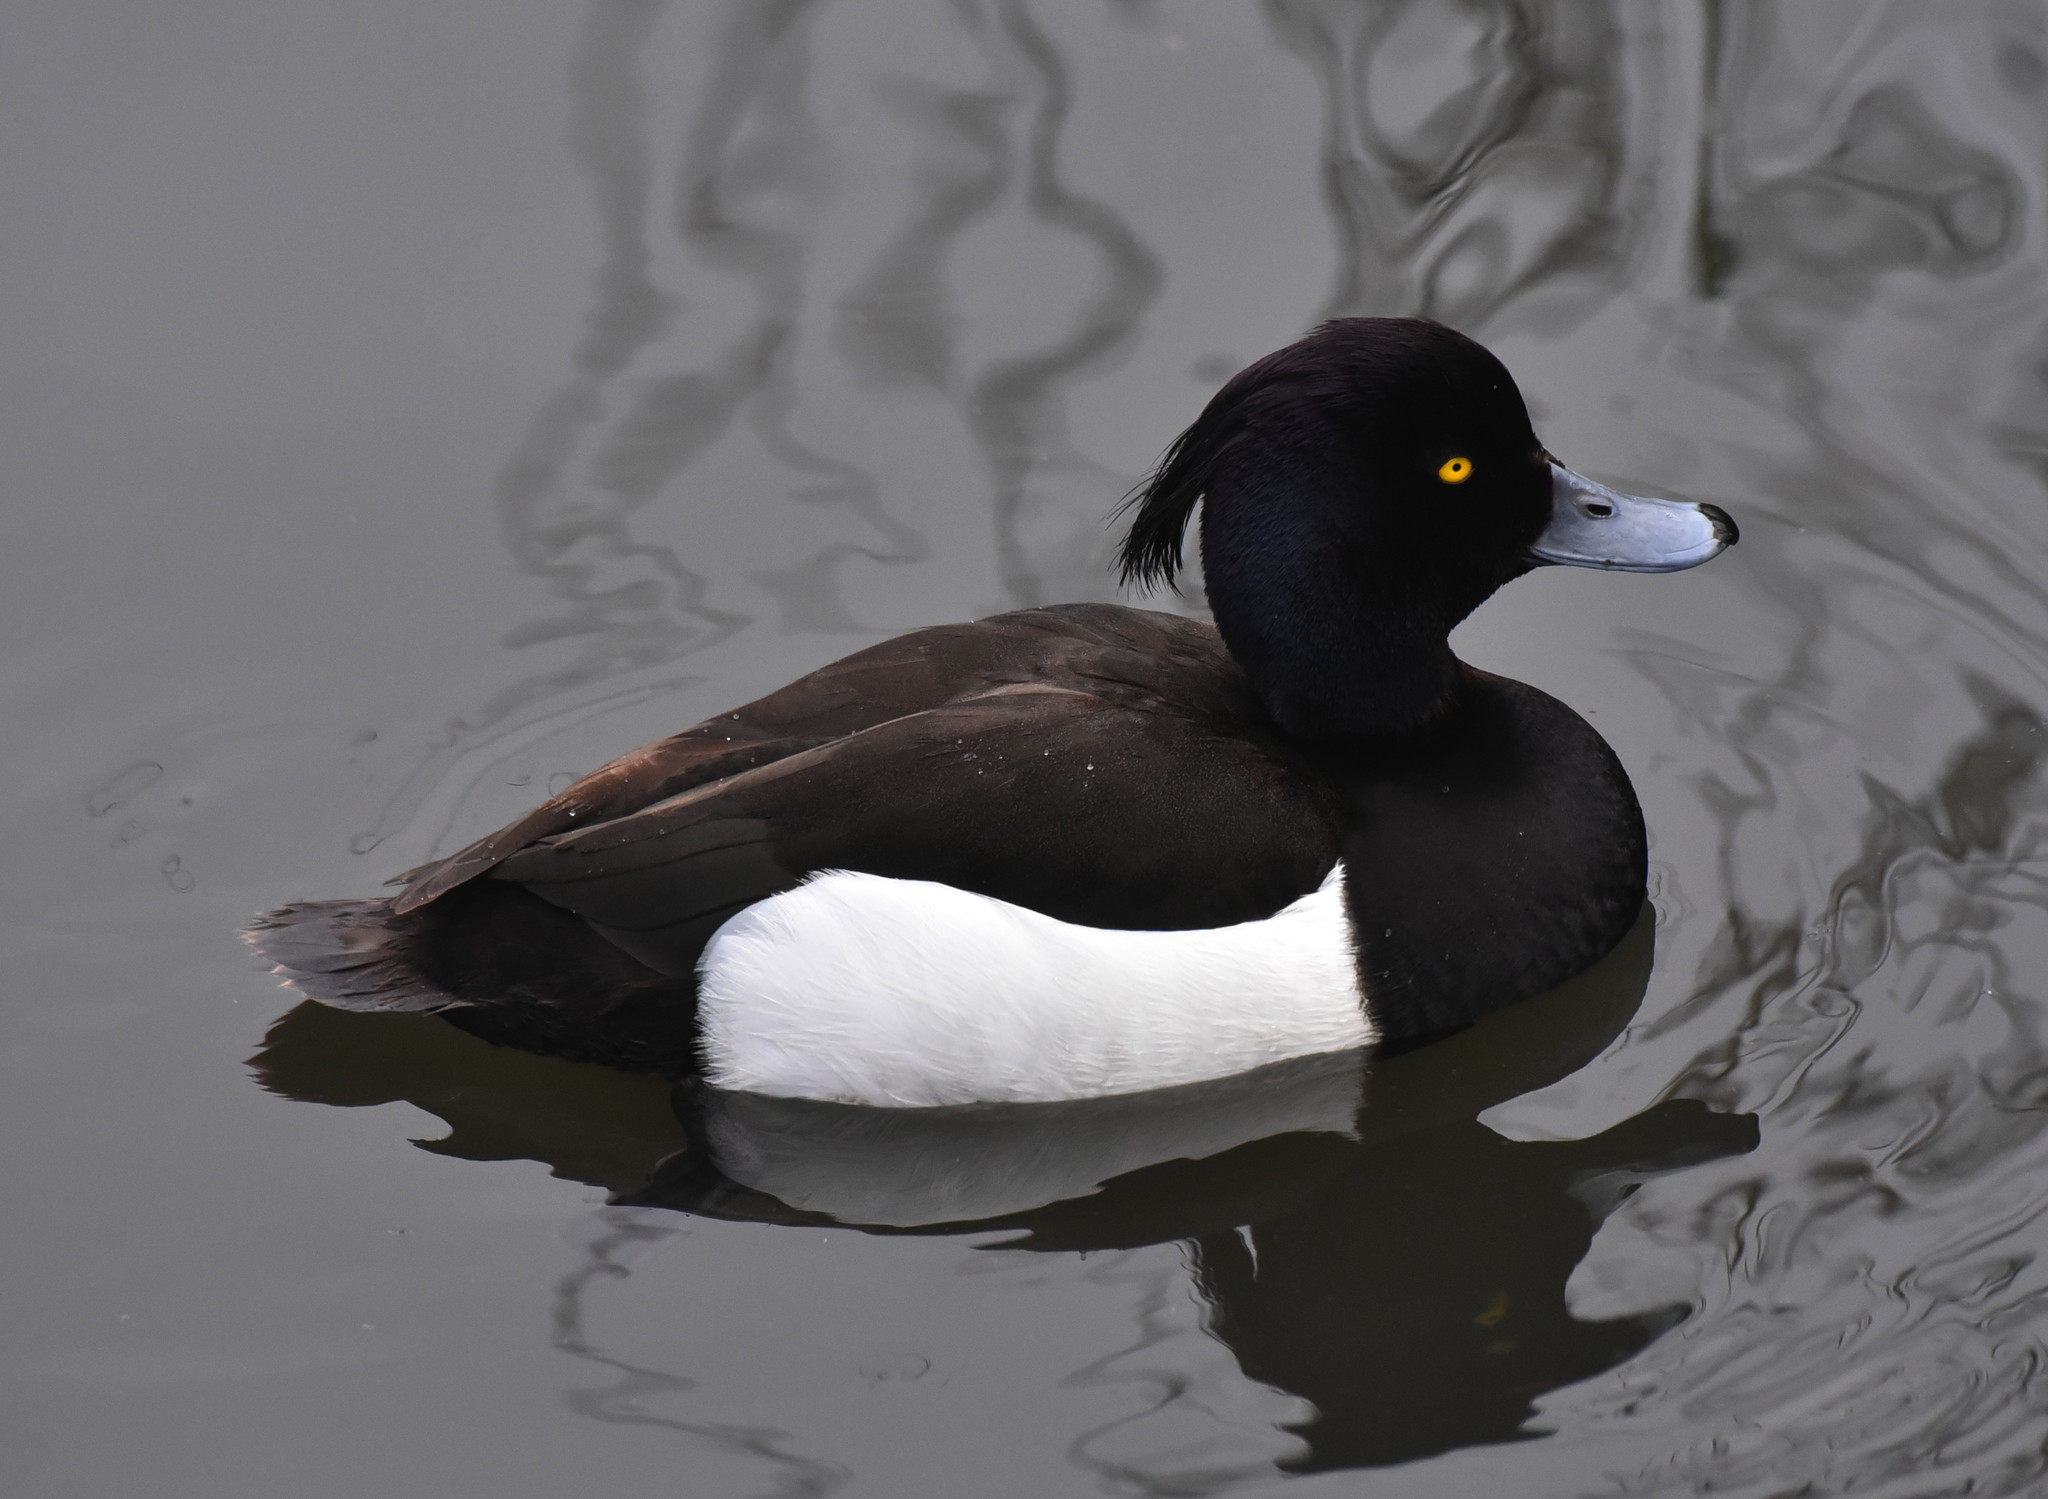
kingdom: Animalia
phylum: Chordata
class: Aves
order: Anseriformes
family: Anatidae
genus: Aythya
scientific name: Aythya fuligula
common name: Tufted duck
